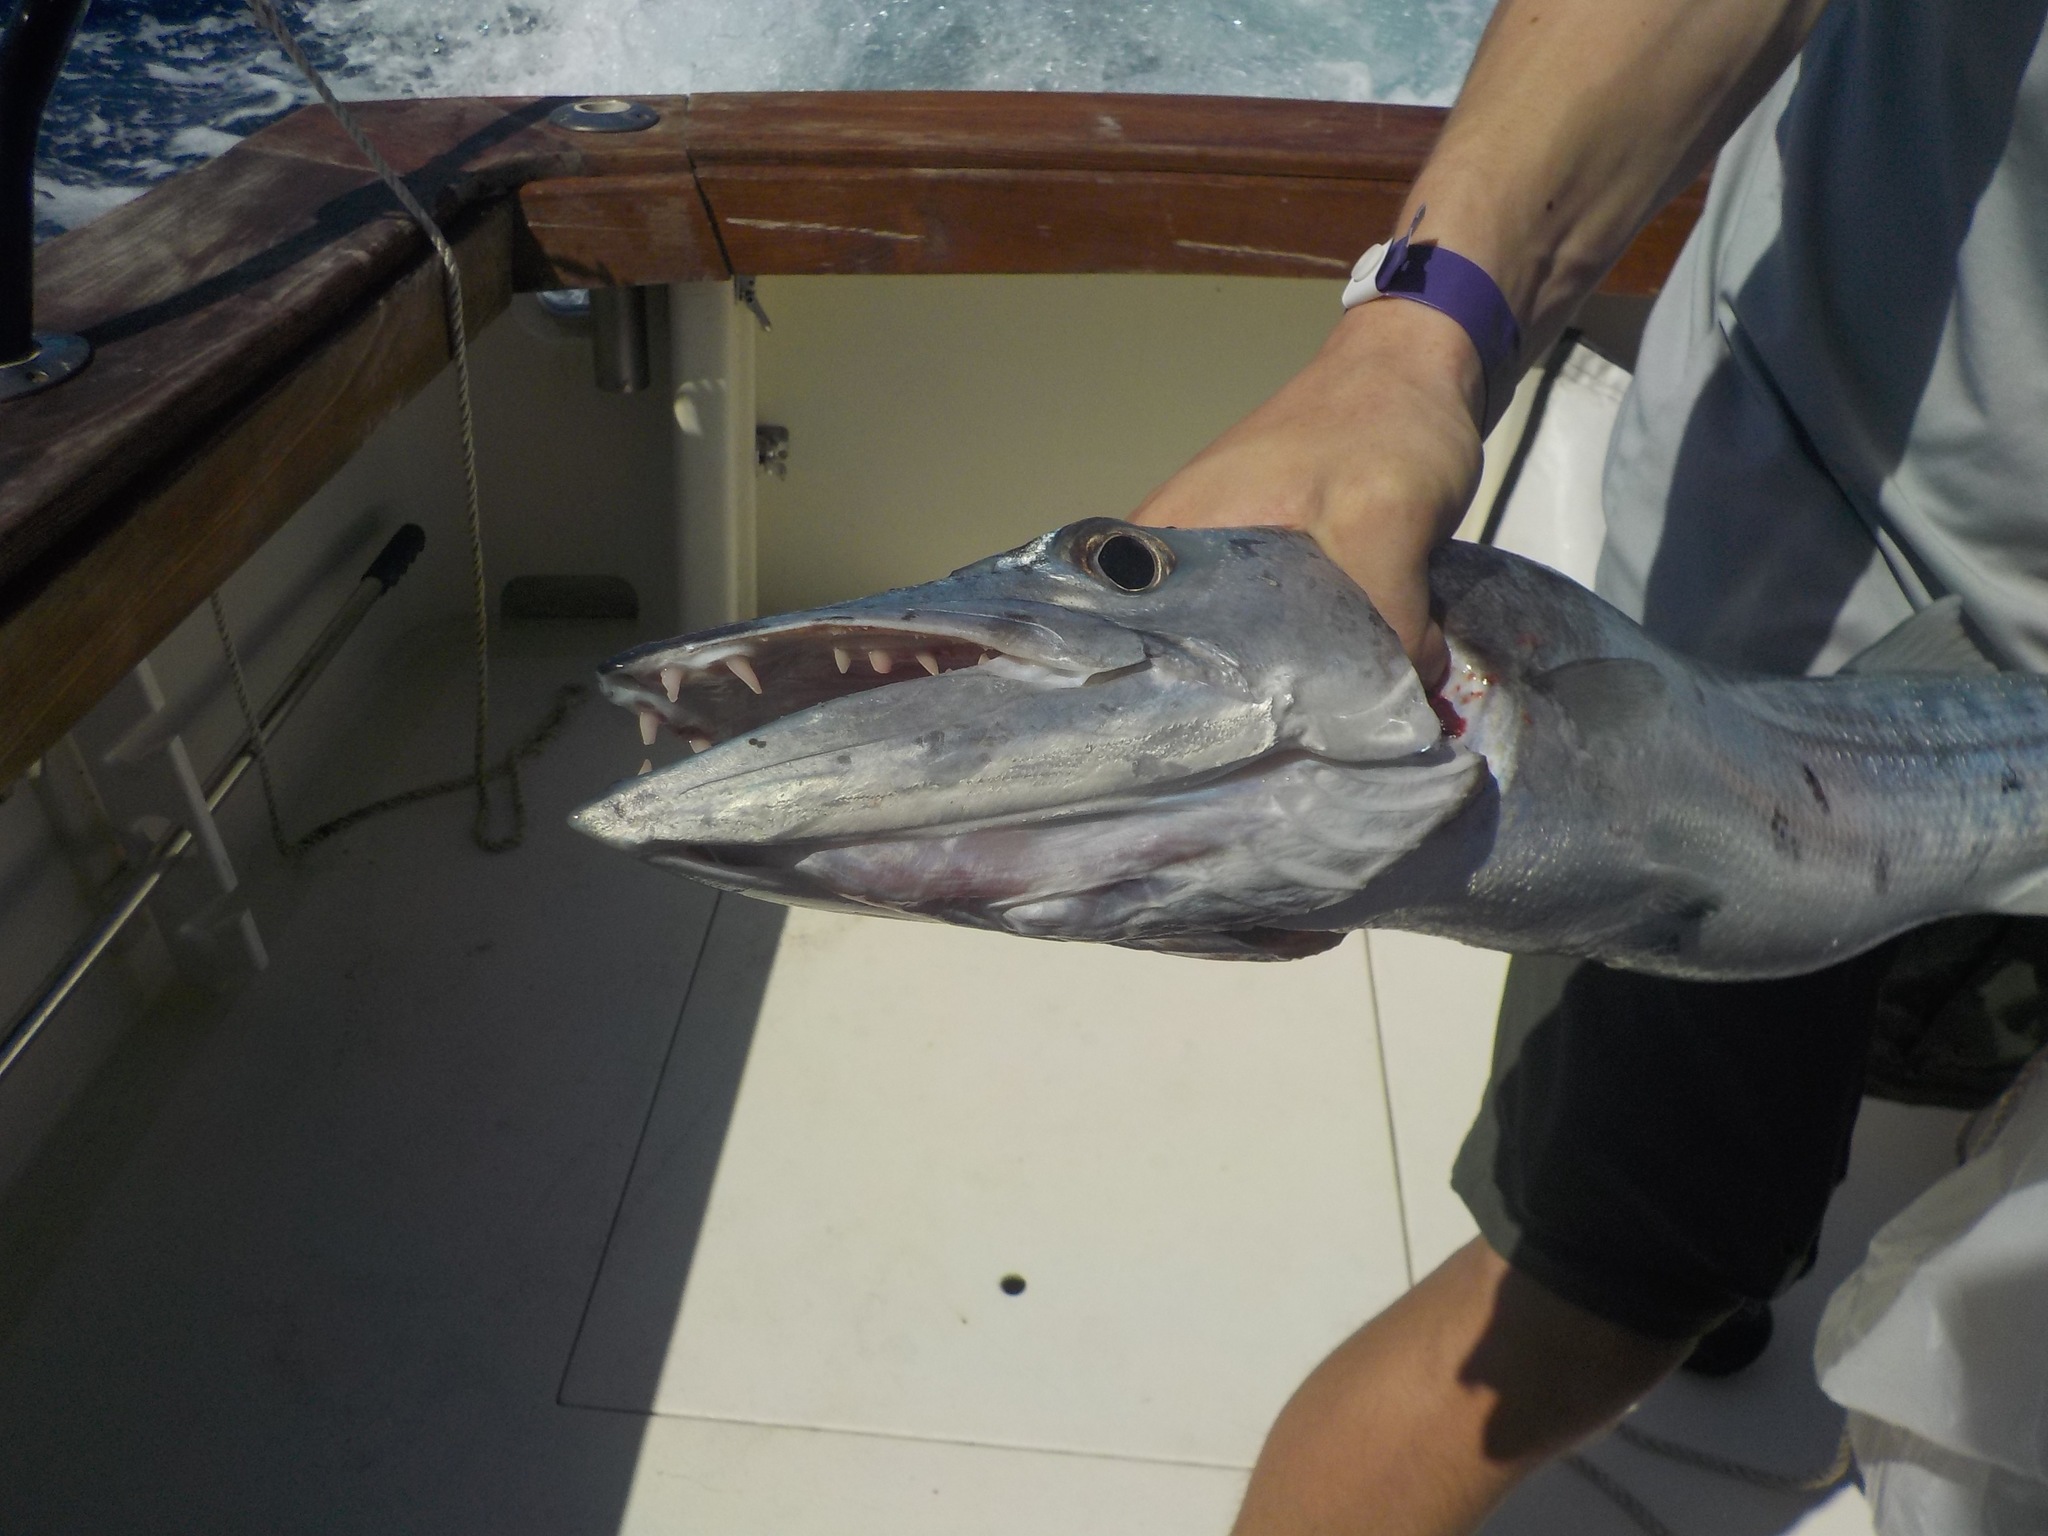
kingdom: Animalia
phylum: Chordata
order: Perciformes
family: Sphyraenidae
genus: Sphyraena
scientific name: Sphyraena barracuda
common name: Great barracuda
